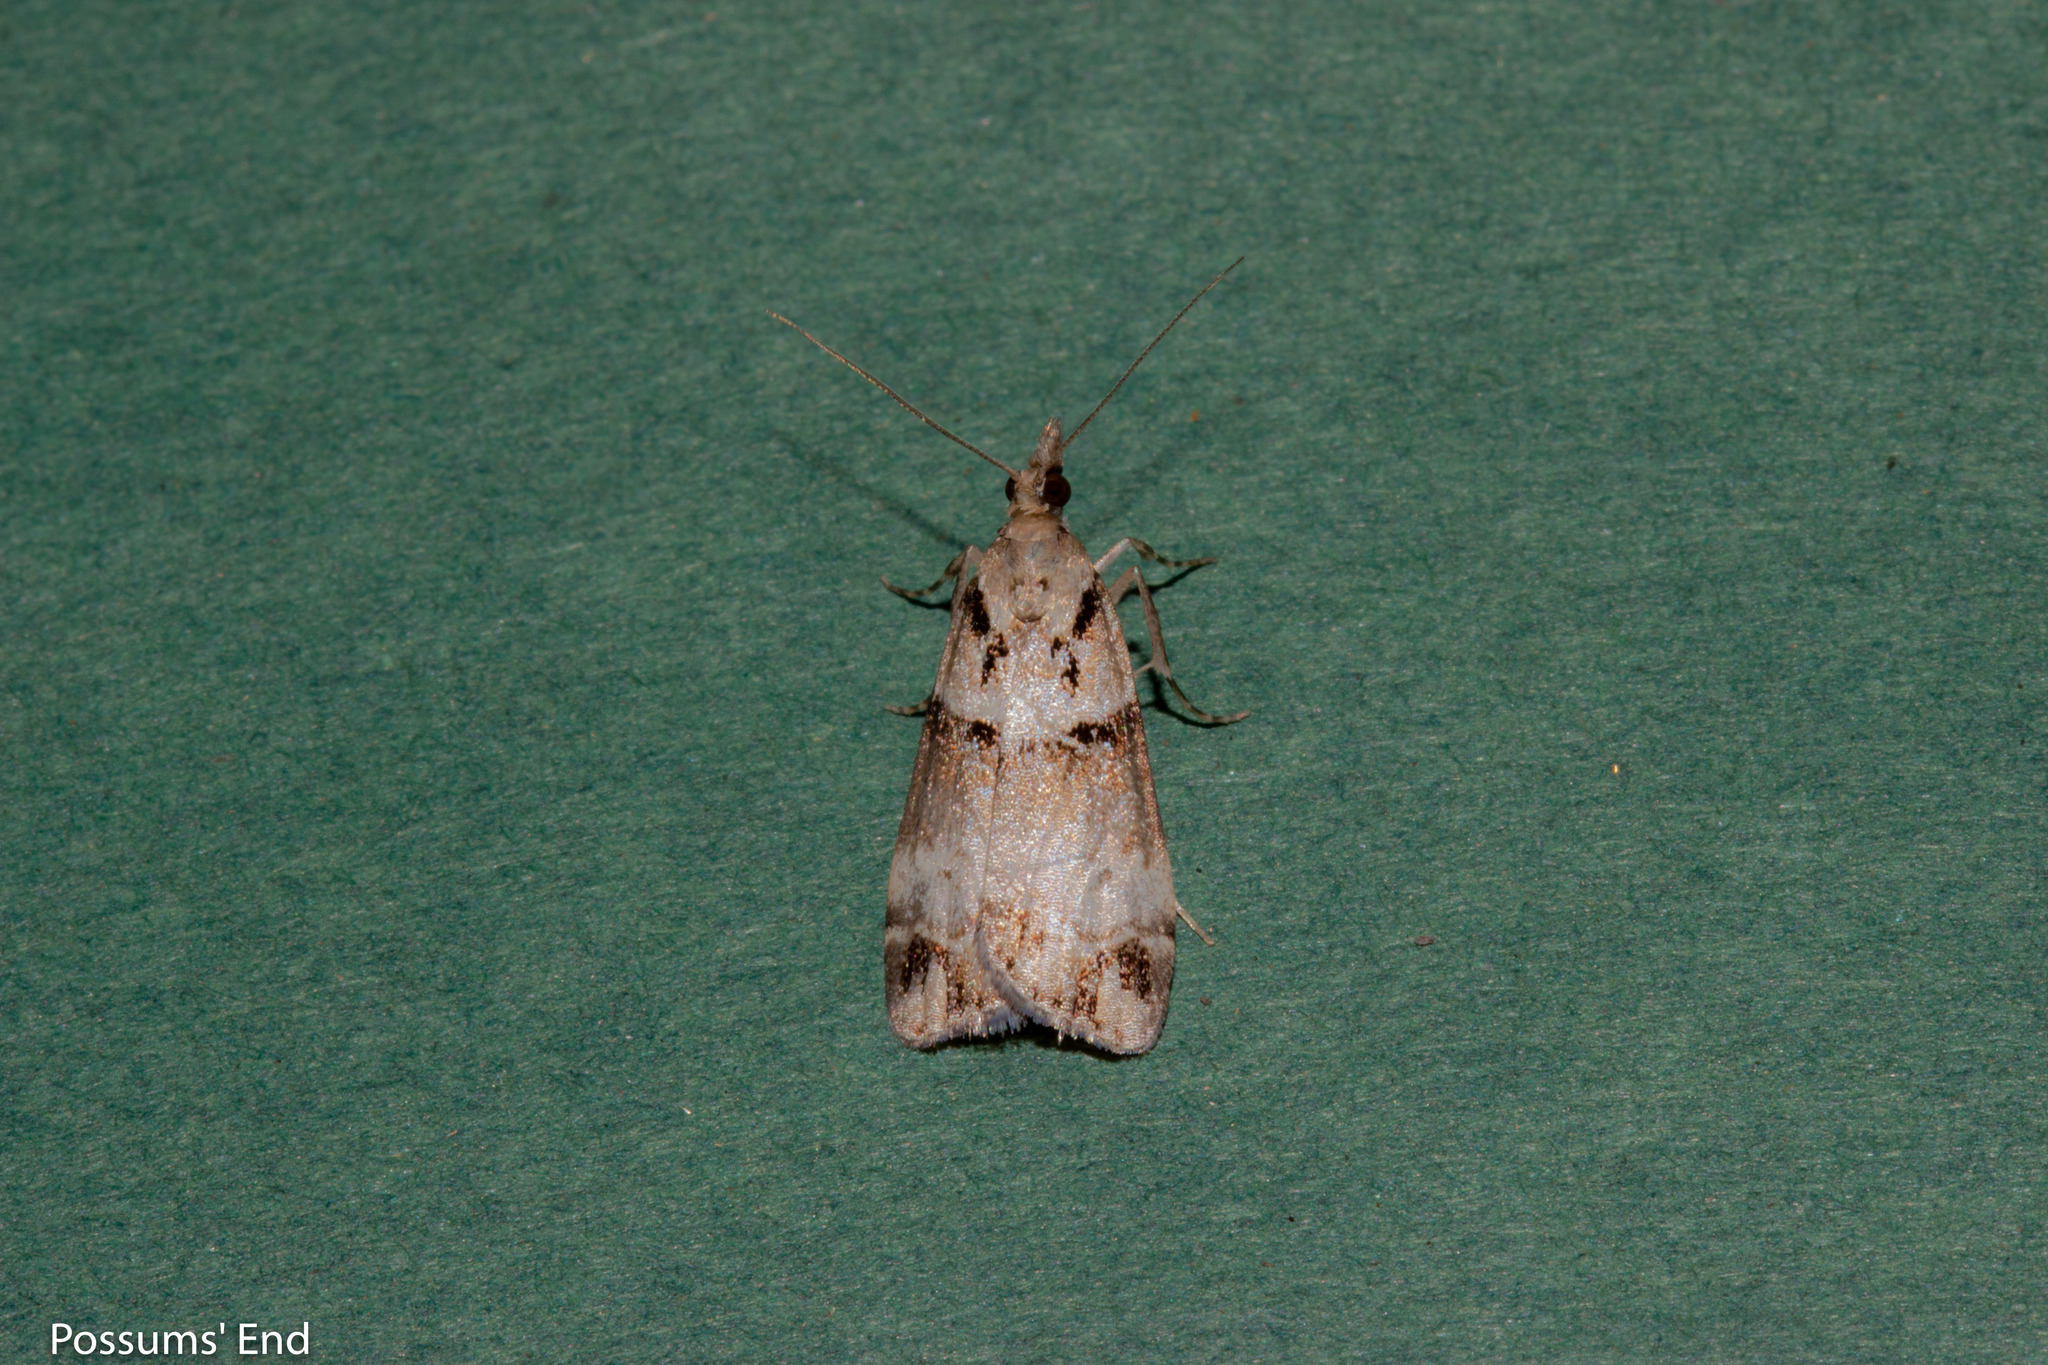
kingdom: Animalia
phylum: Arthropoda
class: Insecta
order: Lepidoptera
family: Crambidae
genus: Eudonia
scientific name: Eudonia periphanes
